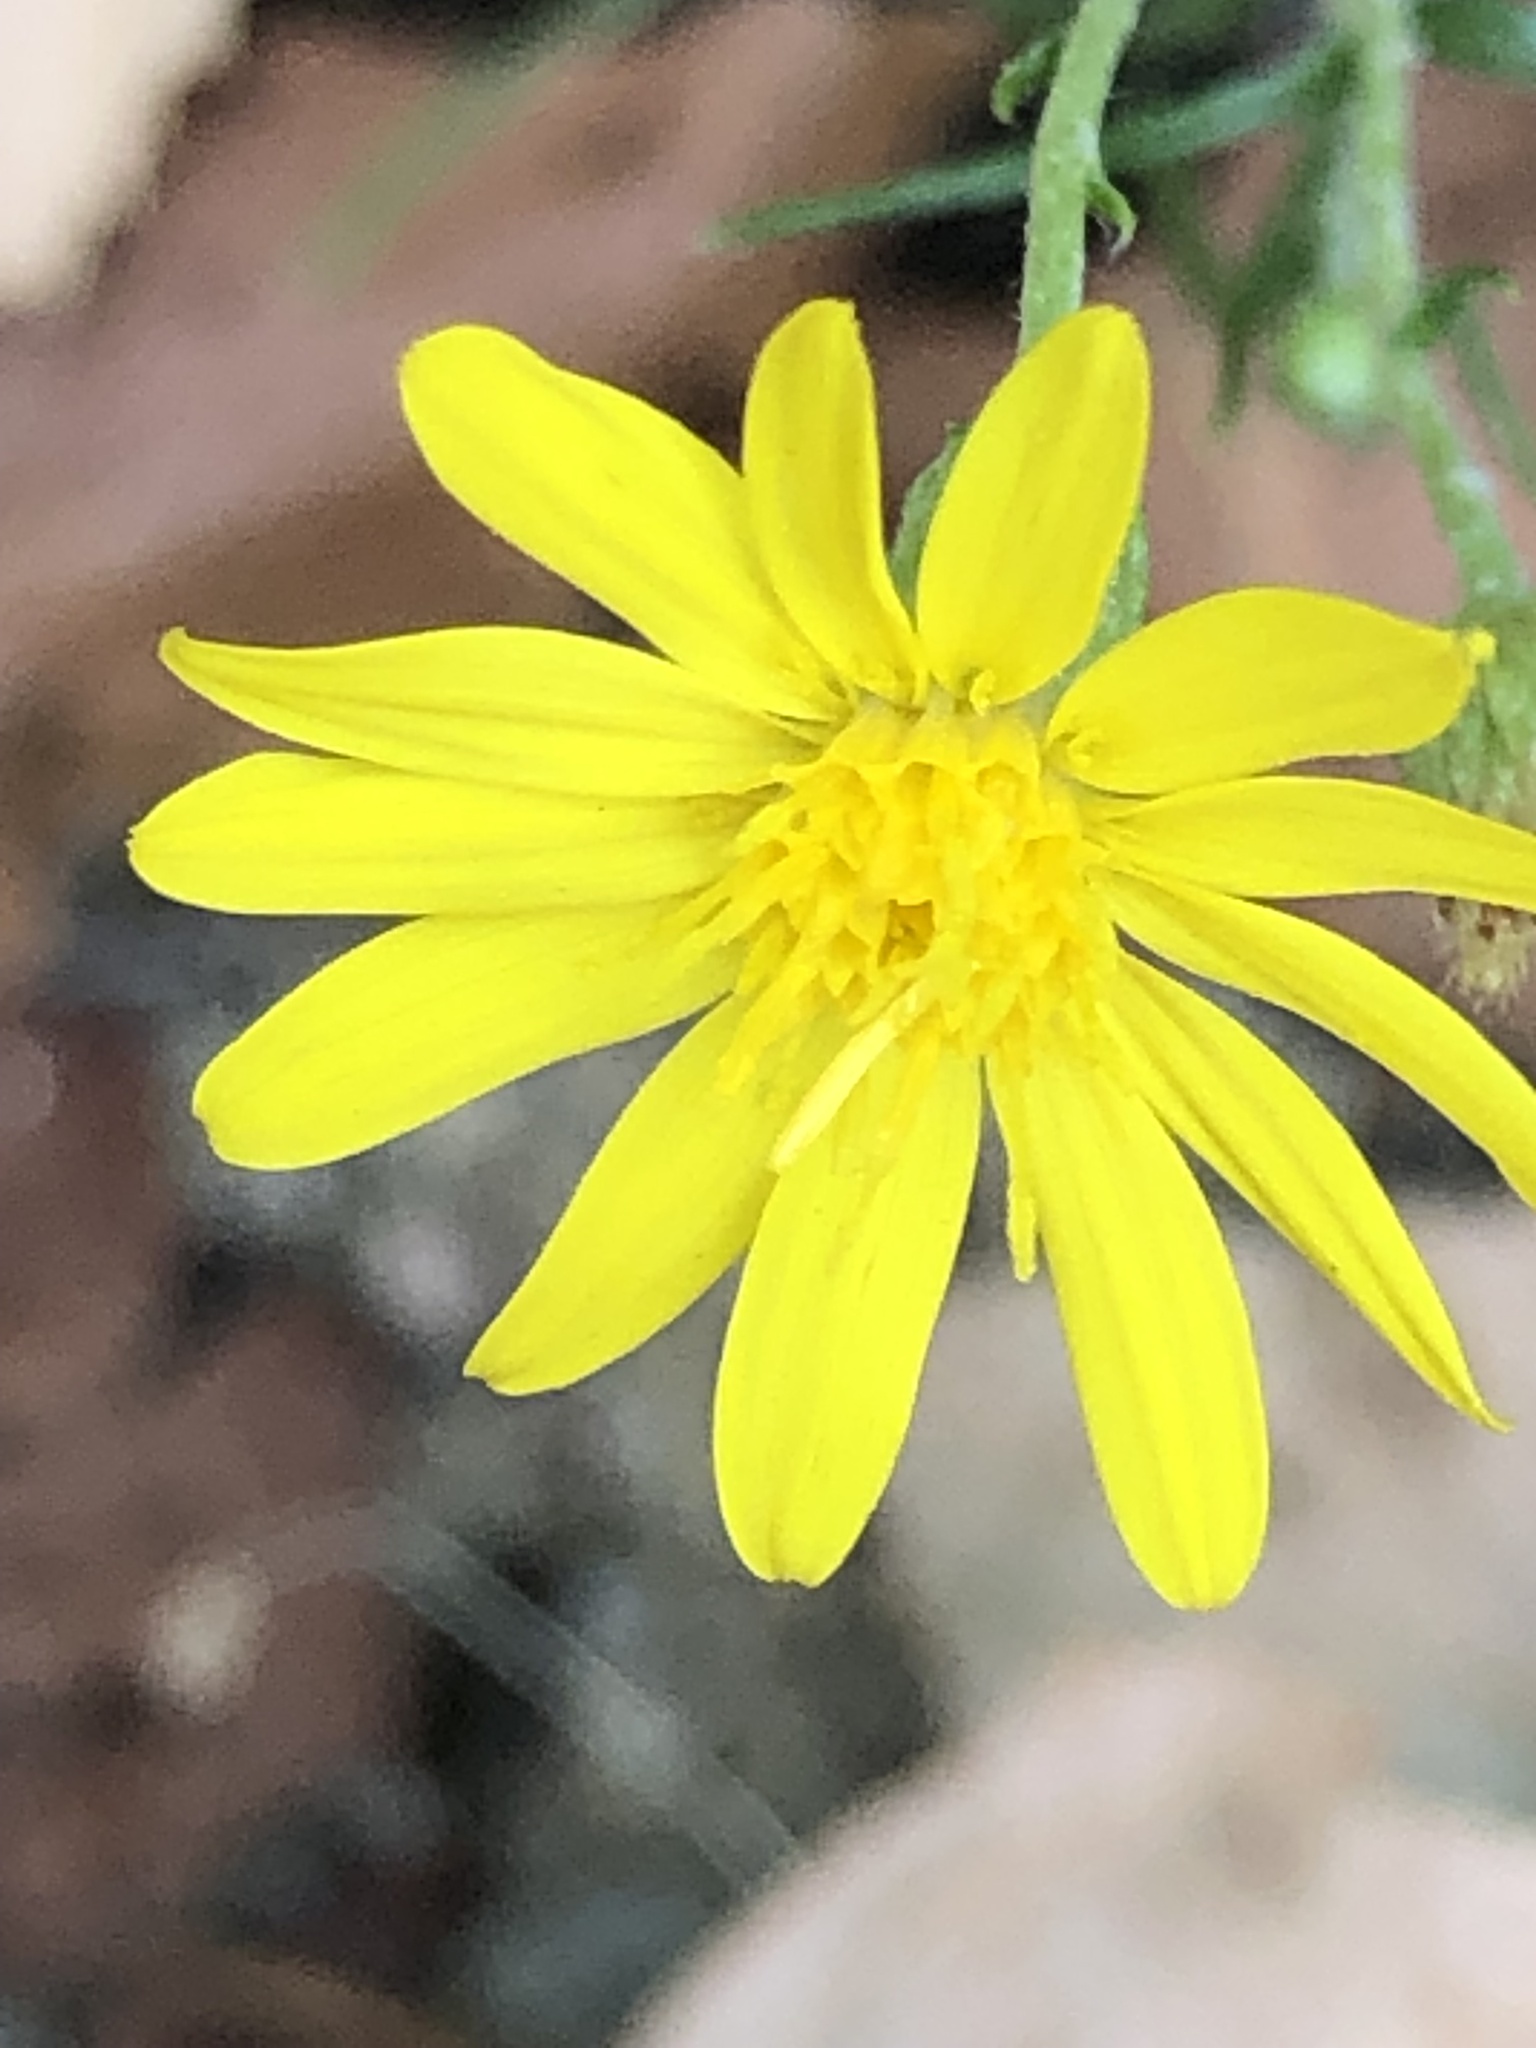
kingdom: Plantae
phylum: Tracheophyta
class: Magnoliopsida
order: Asterales
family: Asteraceae
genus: Pityopsis
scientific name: Pityopsis falcata
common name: Sickle-leaved goldenaster
